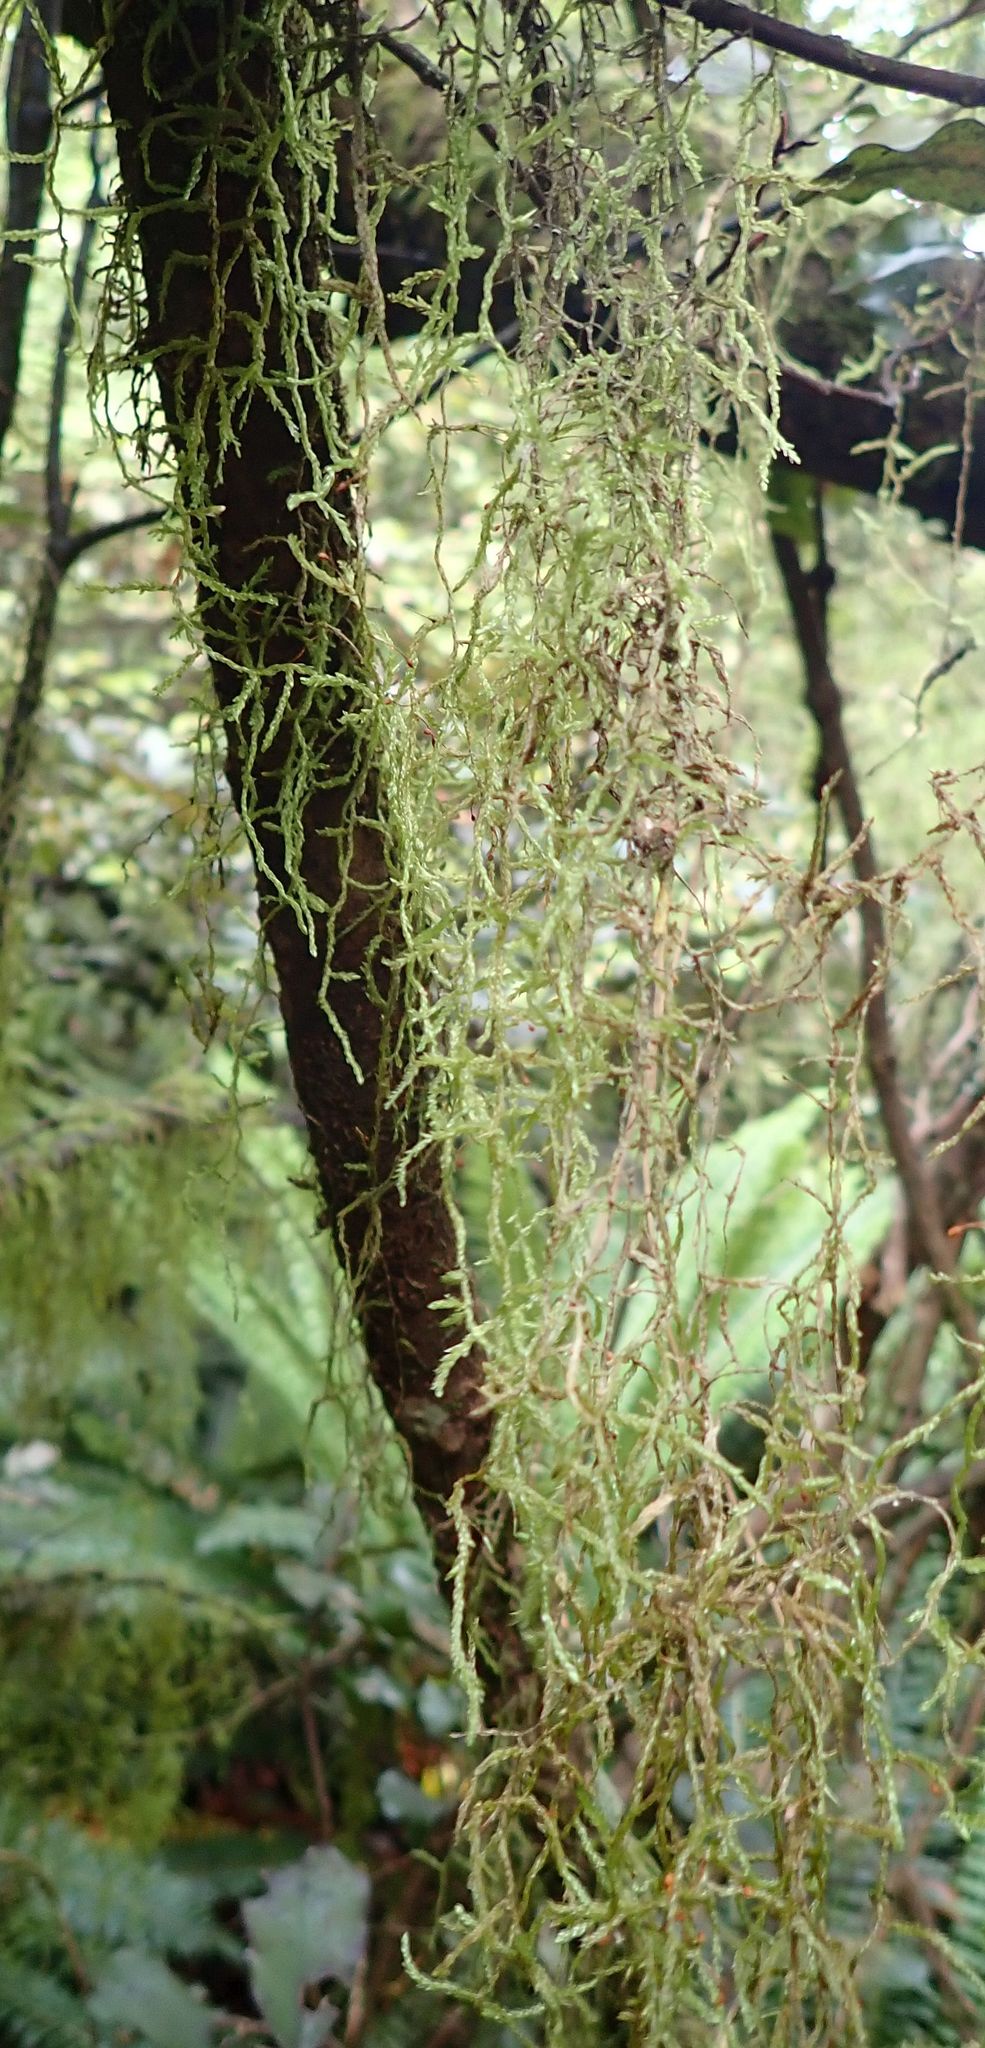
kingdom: Plantae
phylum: Bryophyta
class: Bryopsida
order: Hypnales
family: Lembophyllaceae
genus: Weymouthia
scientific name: Weymouthia mollis
